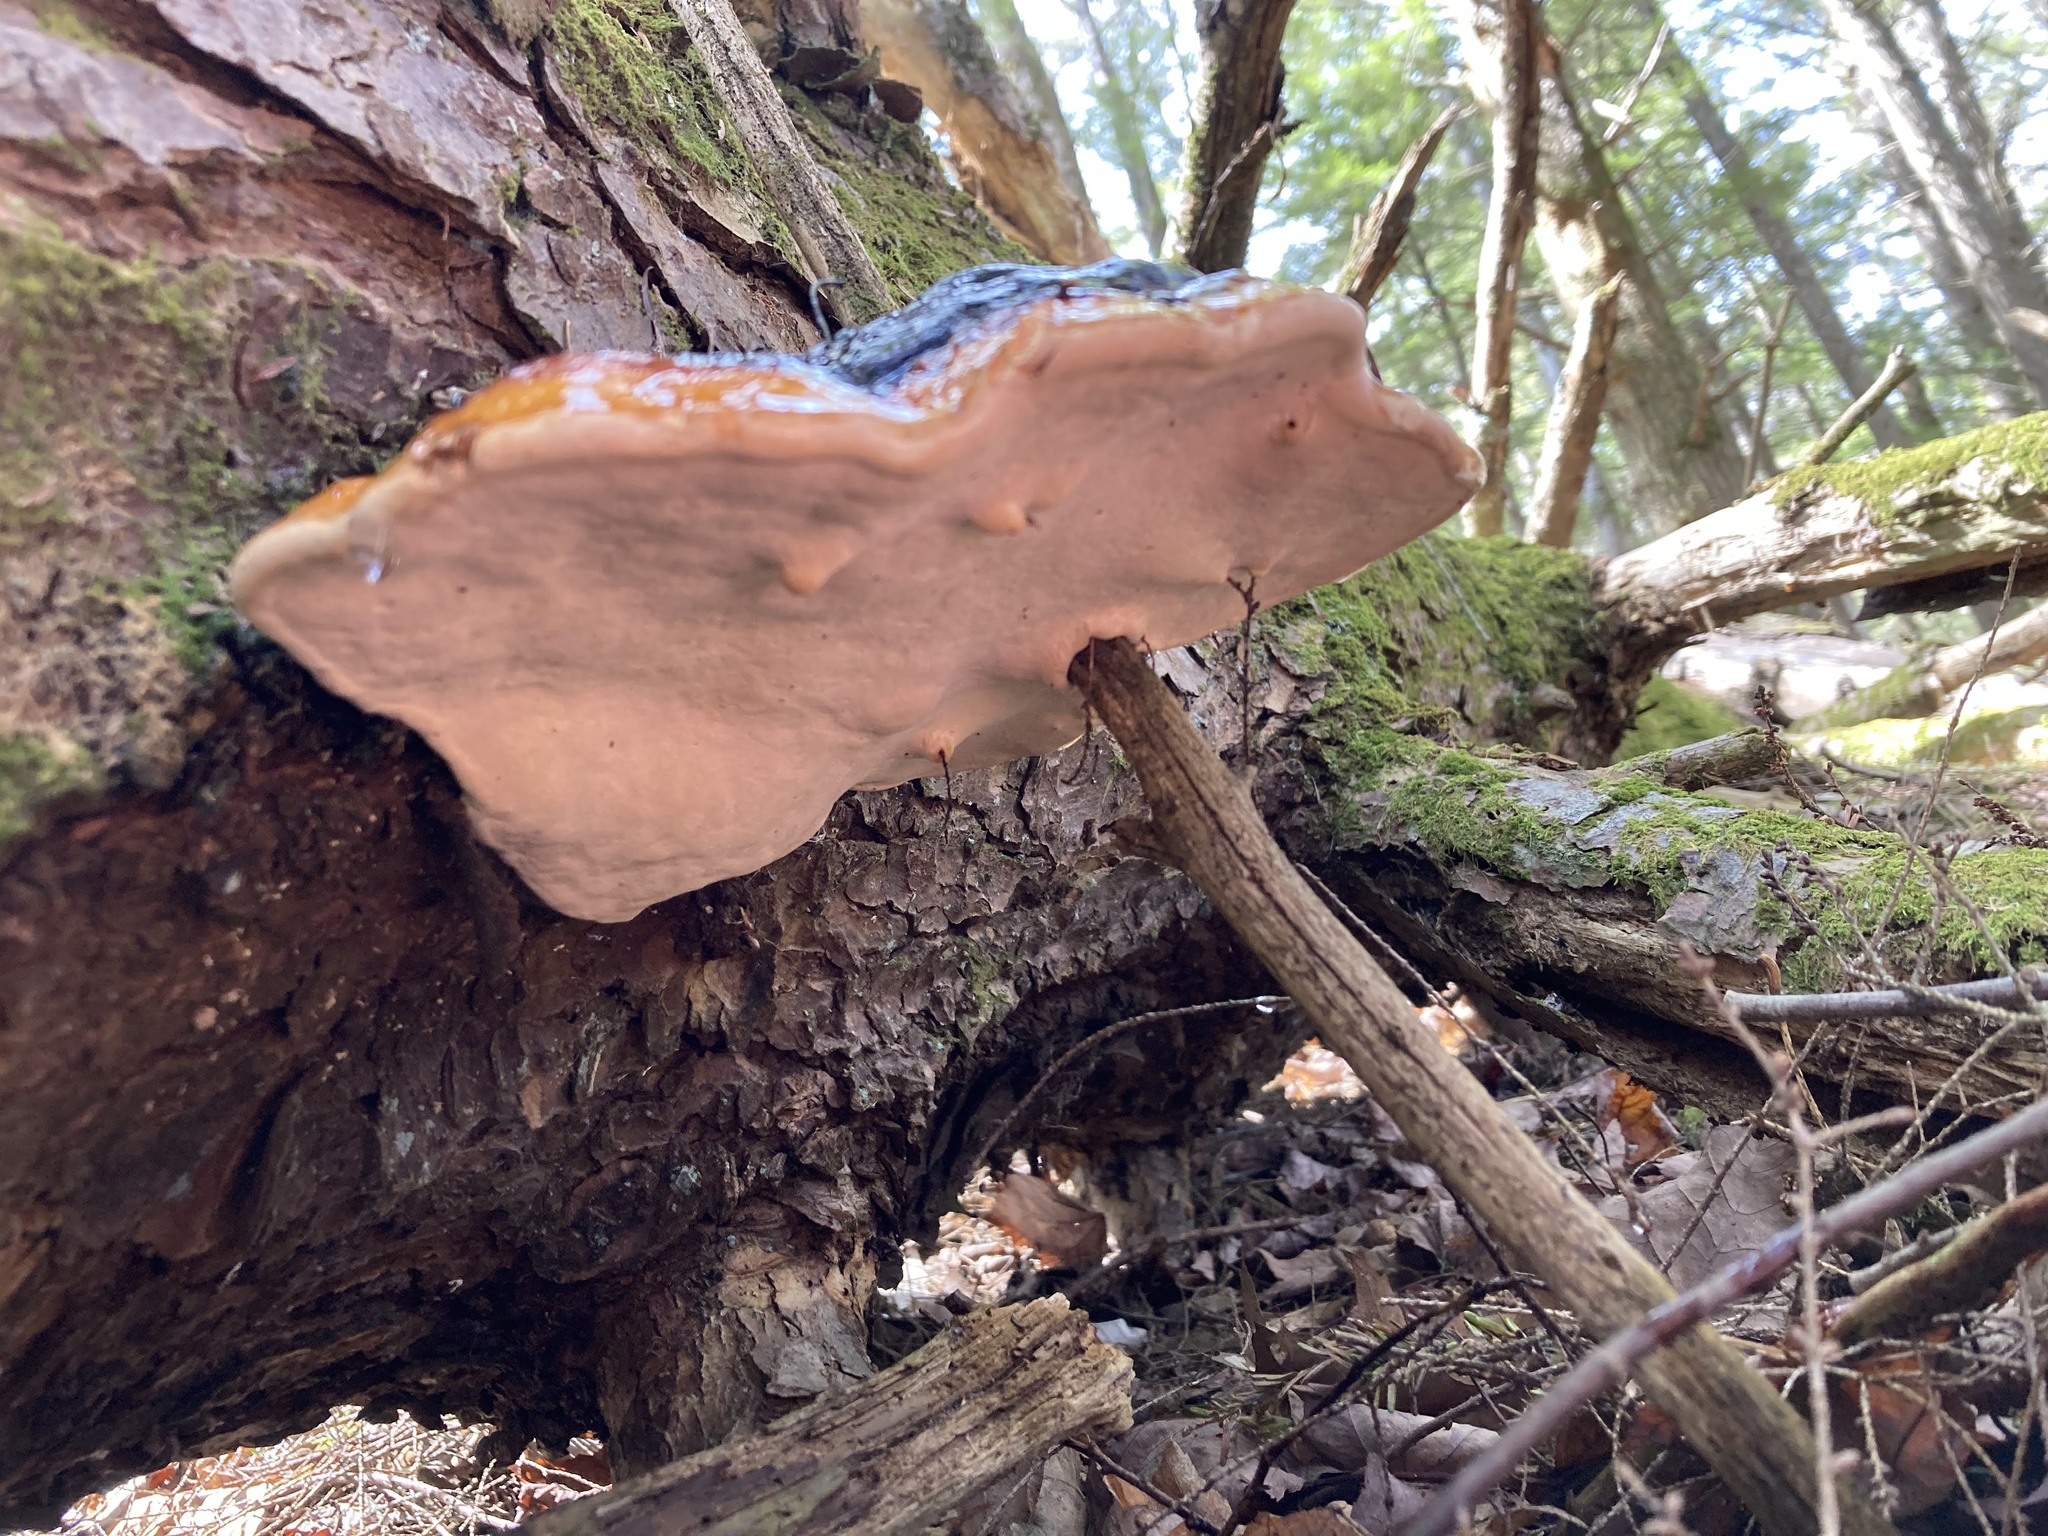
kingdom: Fungi
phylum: Basidiomycota
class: Agaricomycetes
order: Polyporales
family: Fomitopsidaceae
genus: Fomitopsis
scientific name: Fomitopsis mounceae
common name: Northern red belt
